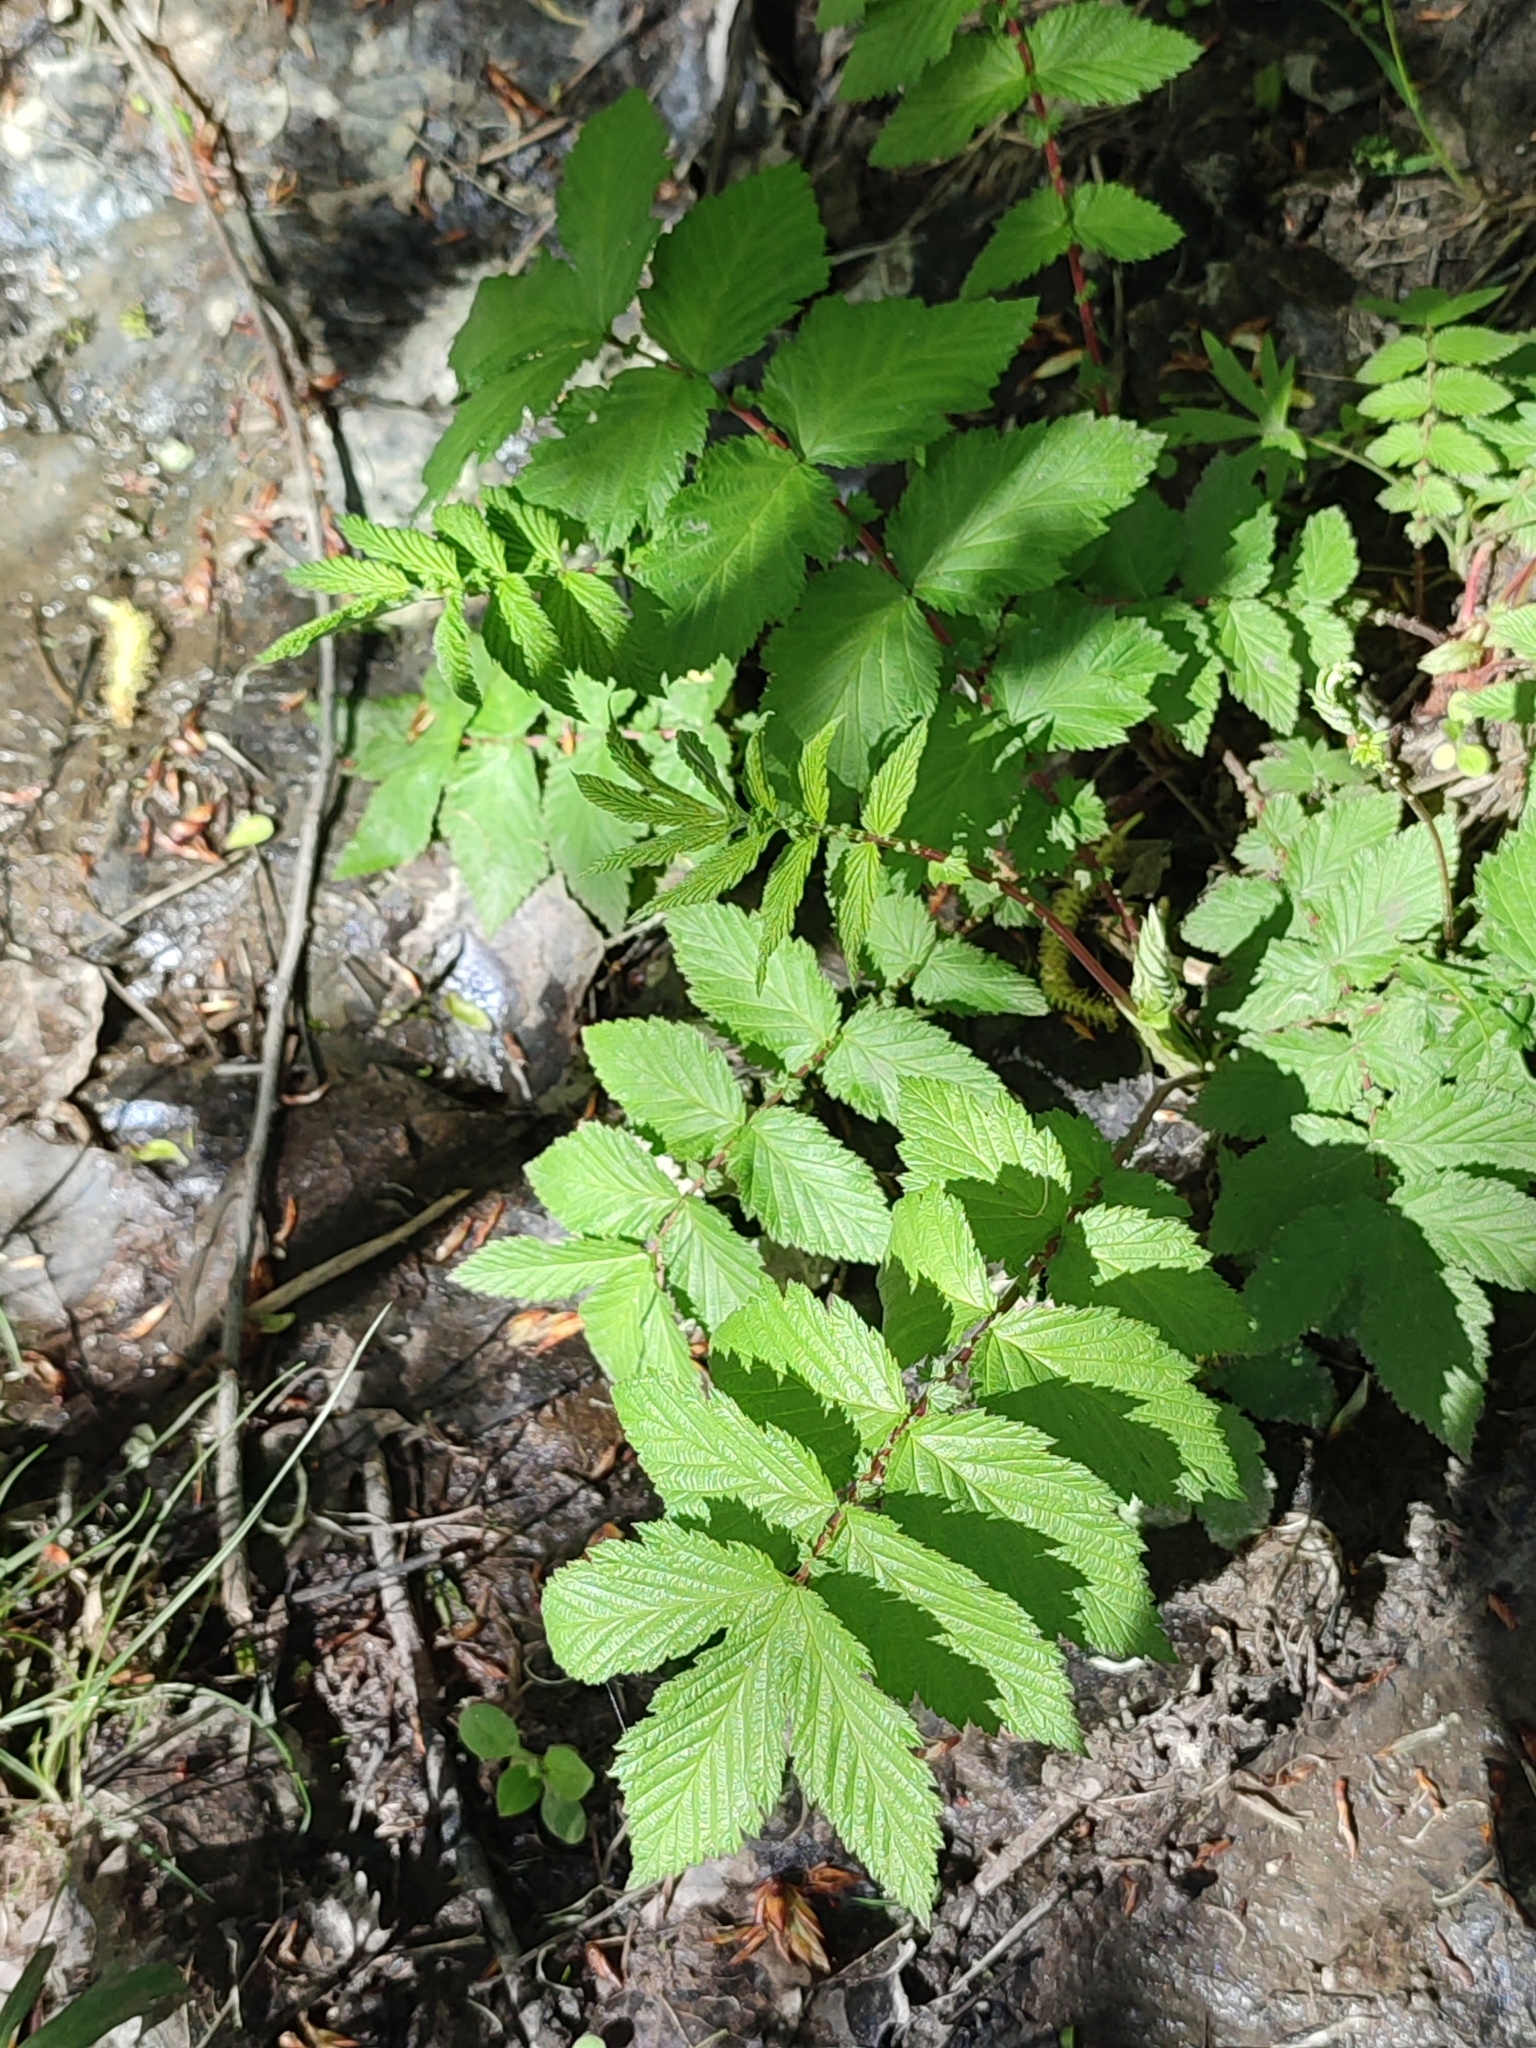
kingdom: Plantae
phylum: Tracheophyta
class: Magnoliopsida
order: Rosales
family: Rosaceae
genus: Filipendula
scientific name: Filipendula ulmaria
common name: Meadowsweet
